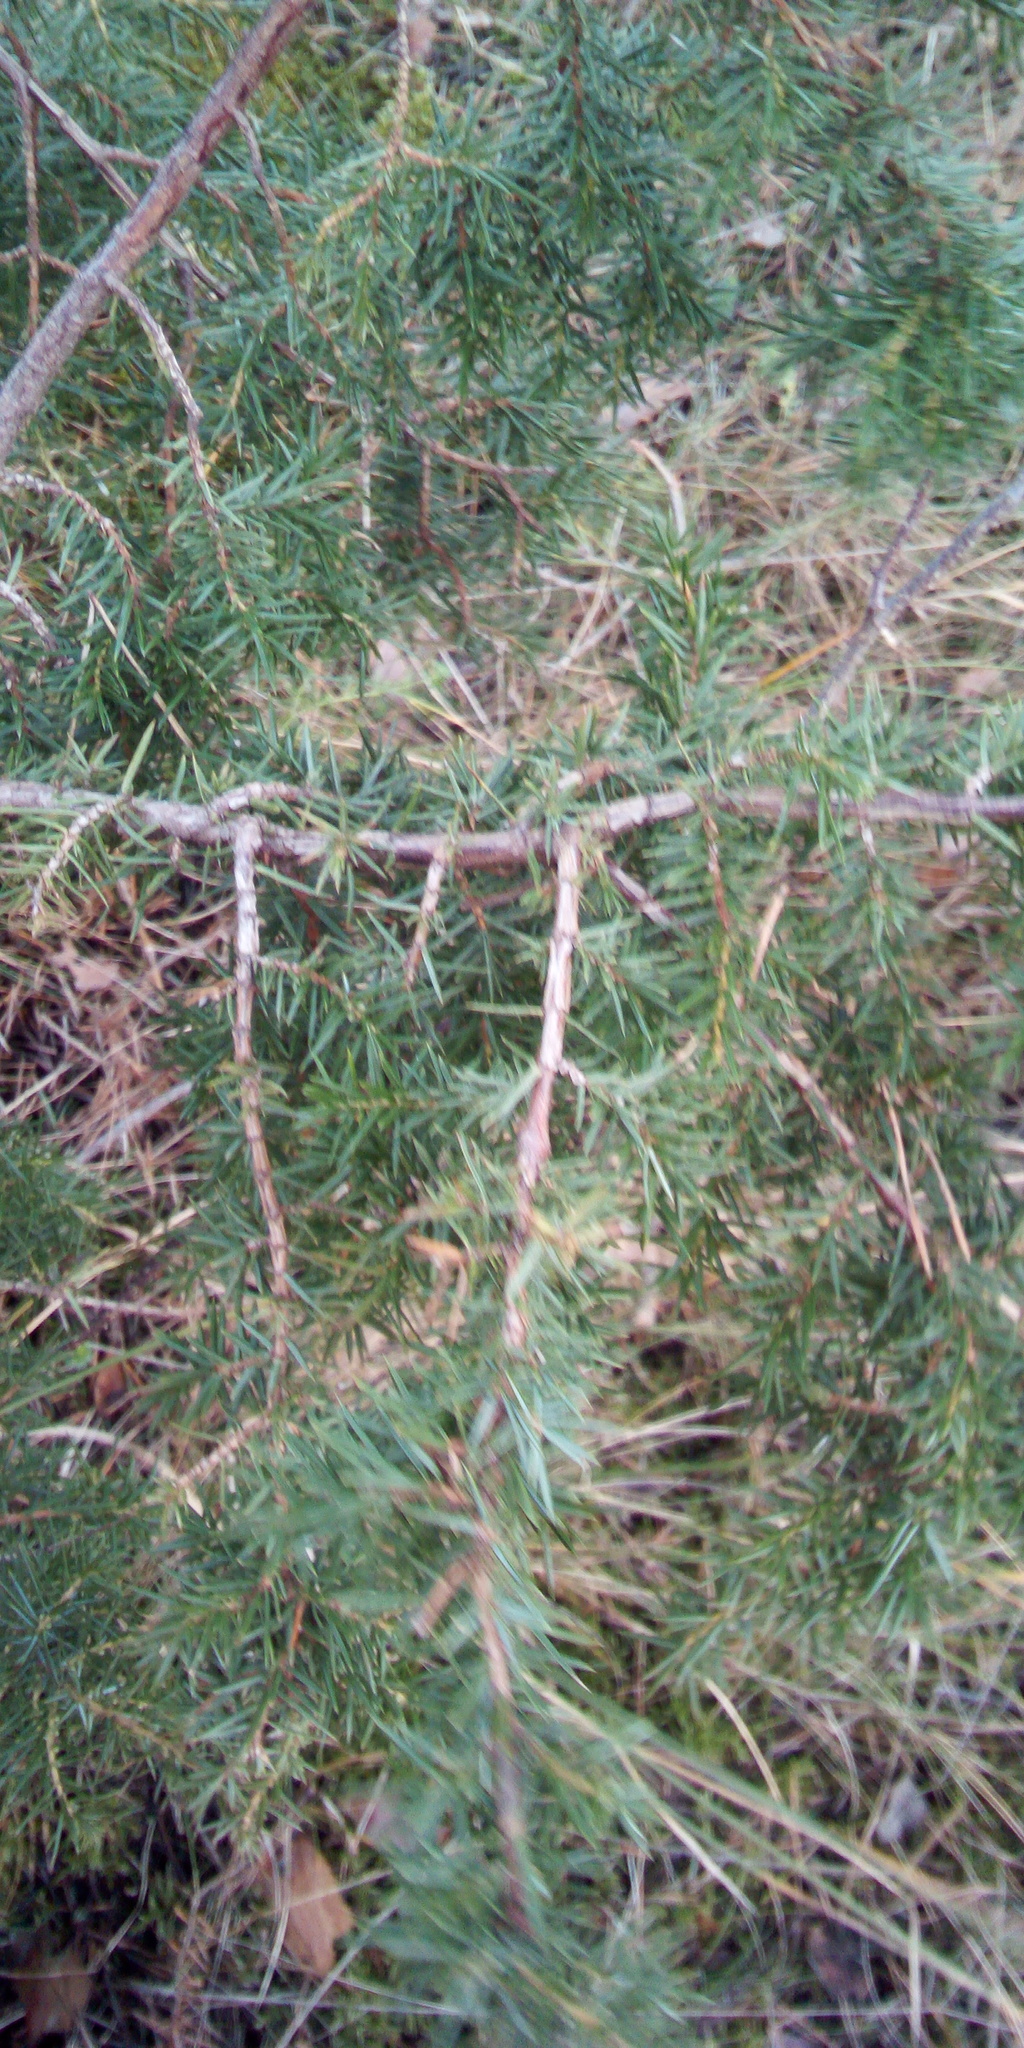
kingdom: Plantae
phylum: Tracheophyta
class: Pinopsida
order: Pinales
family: Cupressaceae
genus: Juniperus
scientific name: Juniperus communis
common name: Common juniper
